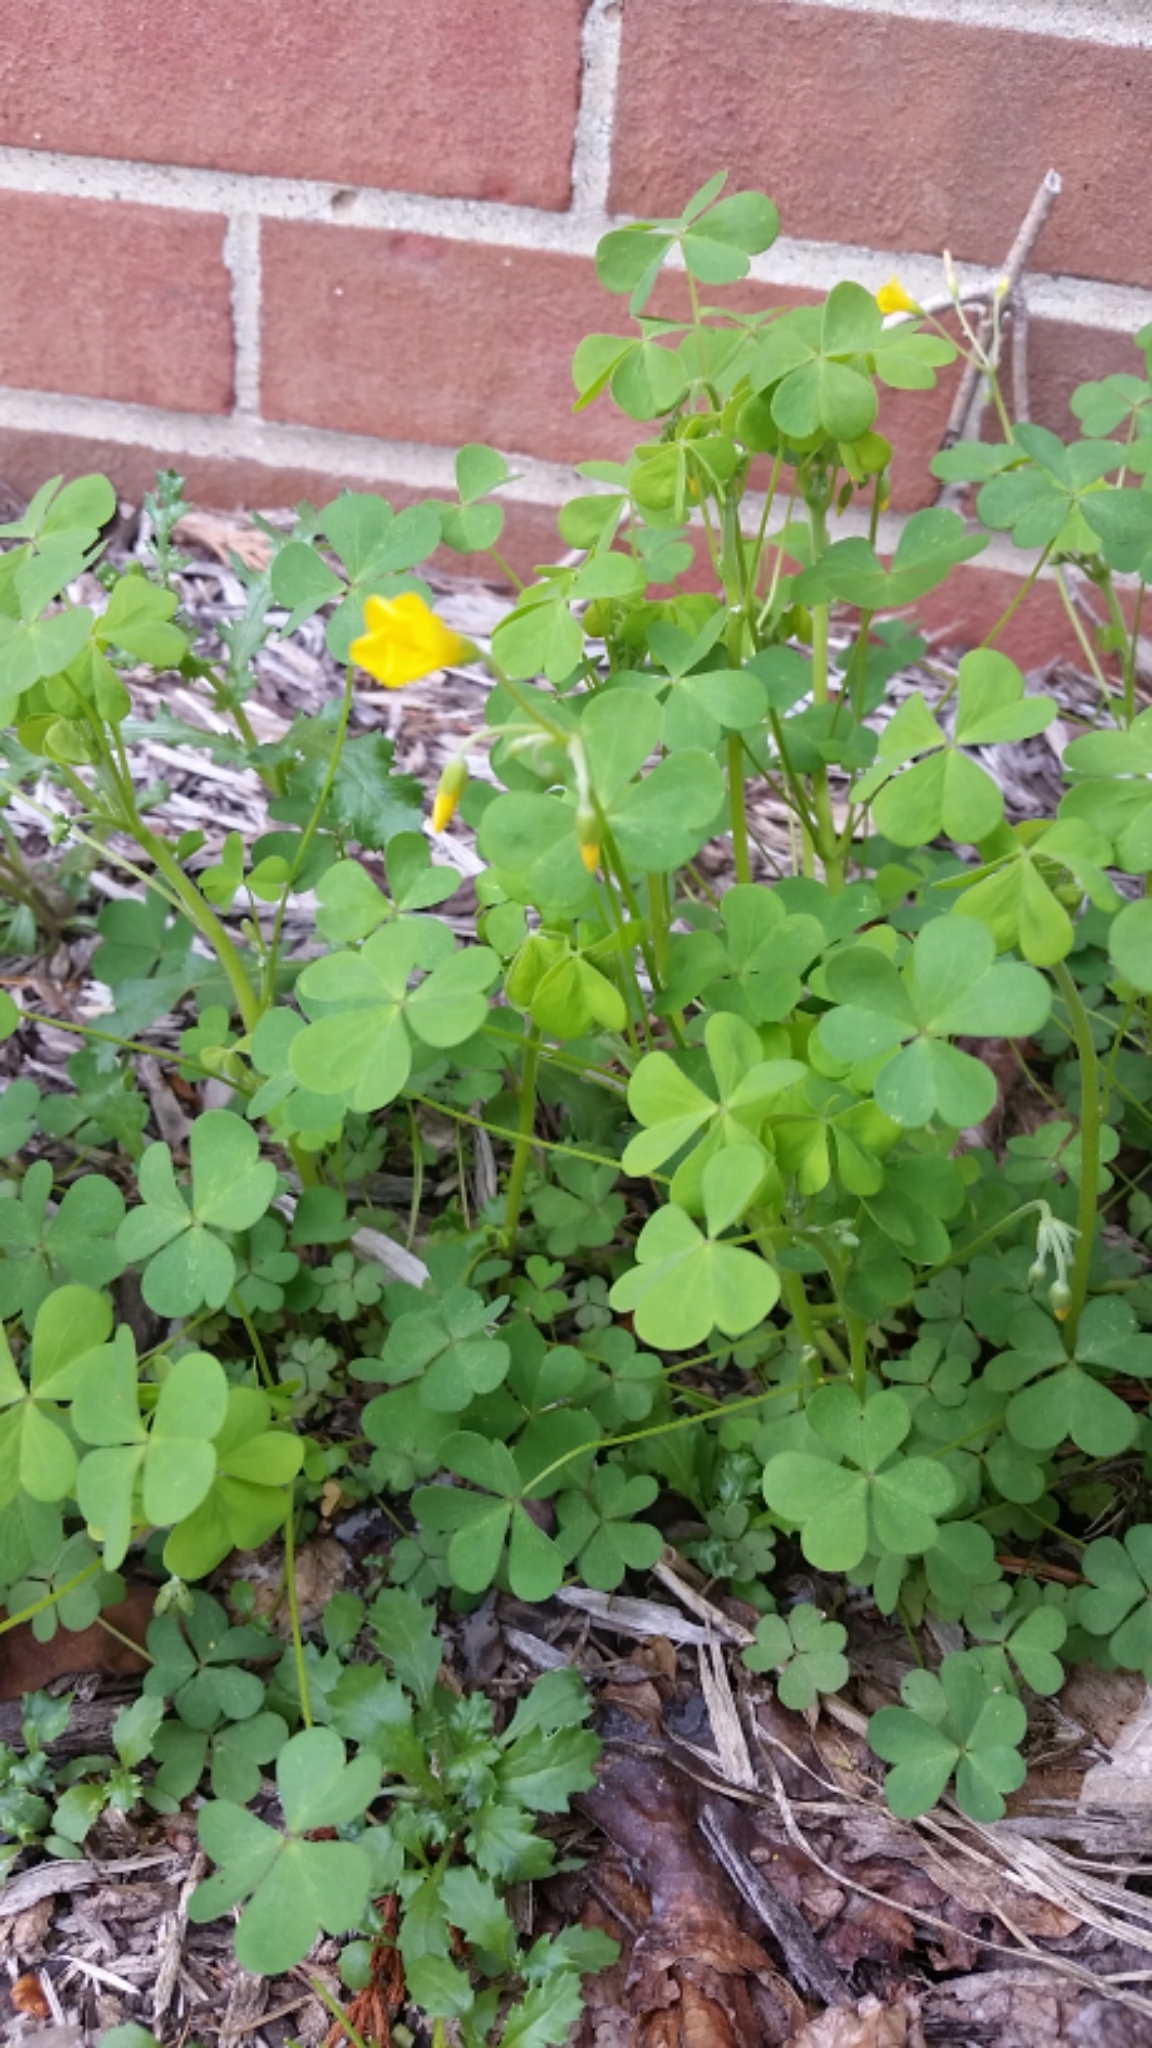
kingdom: Plantae
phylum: Tracheophyta
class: Magnoliopsida
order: Oxalidales
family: Oxalidaceae
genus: Oxalis
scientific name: Oxalis stricta
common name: Upright yellow-sorrel
